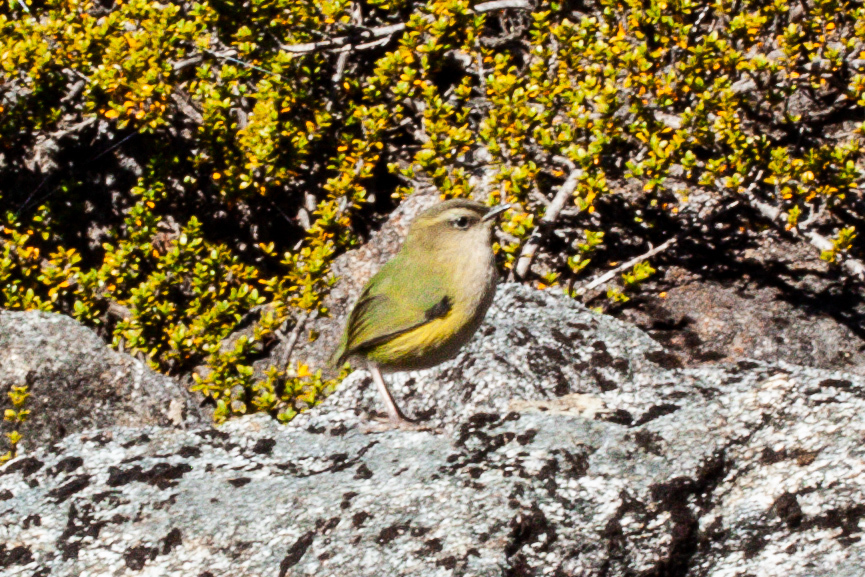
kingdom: Animalia
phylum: Chordata
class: Aves
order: Passeriformes
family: Acanthisittidae
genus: Xenicus
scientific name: Xenicus gilviventris
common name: New zealand rockwren
